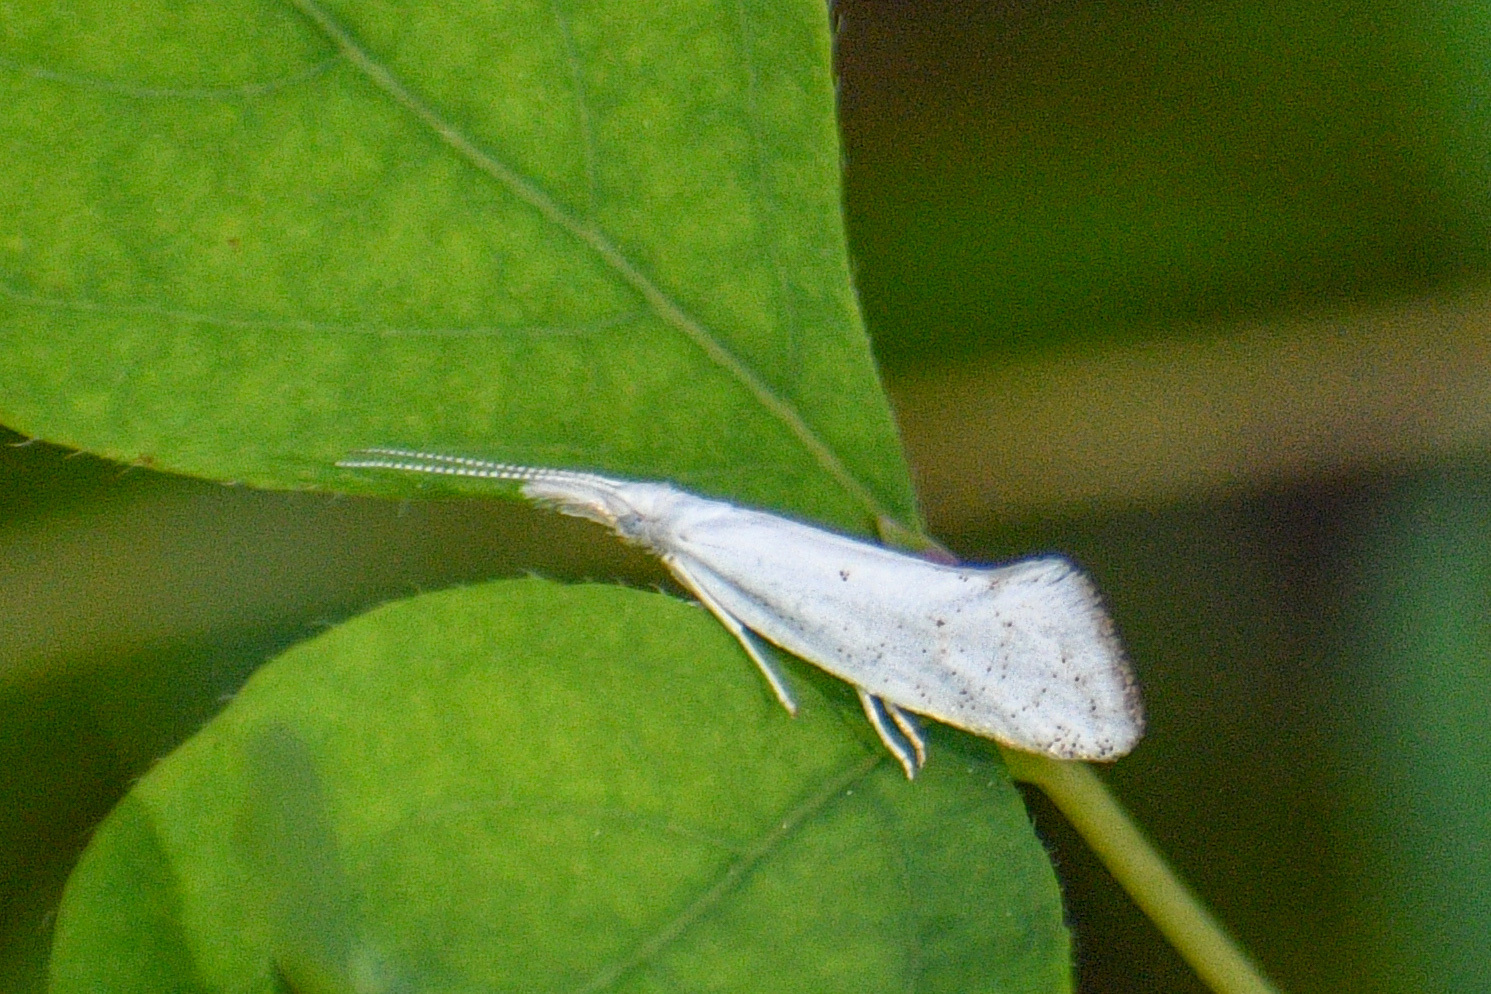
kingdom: Animalia
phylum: Arthropoda
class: Insecta
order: Lepidoptera
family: Ypsolophidae
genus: Euceratia
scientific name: Euceratia castella
